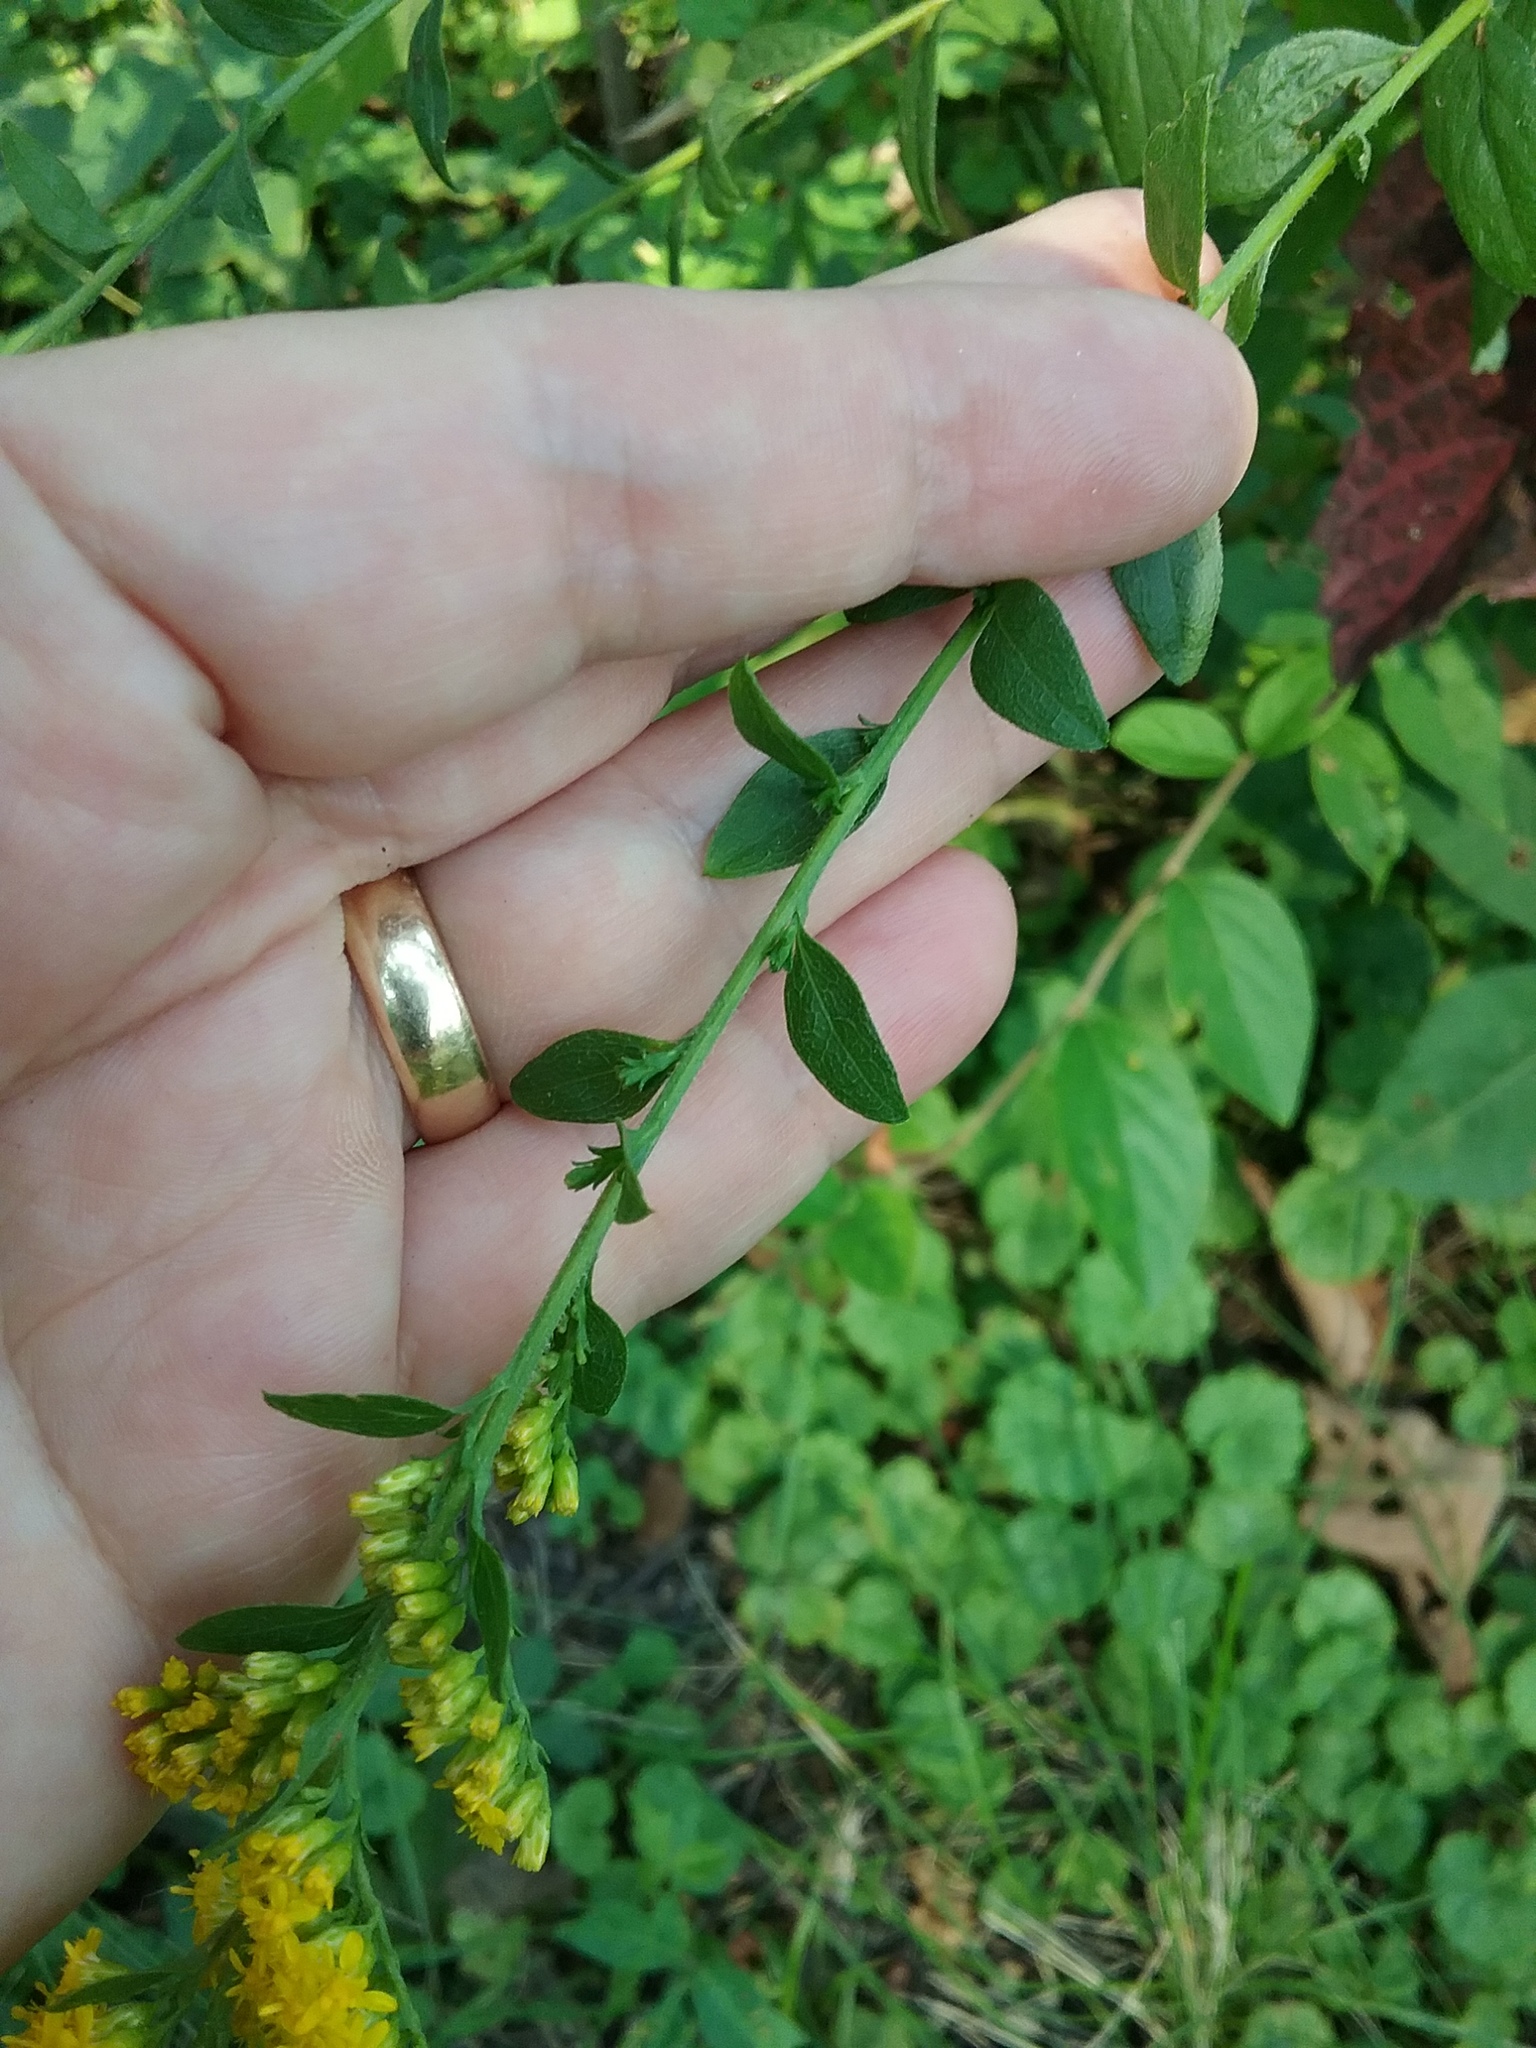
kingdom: Plantae
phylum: Tracheophyta
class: Magnoliopsida
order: Asterales
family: Asteraceae
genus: Solidago
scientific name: Solidago ulmifolia
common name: Elm-leaf goldenrod
